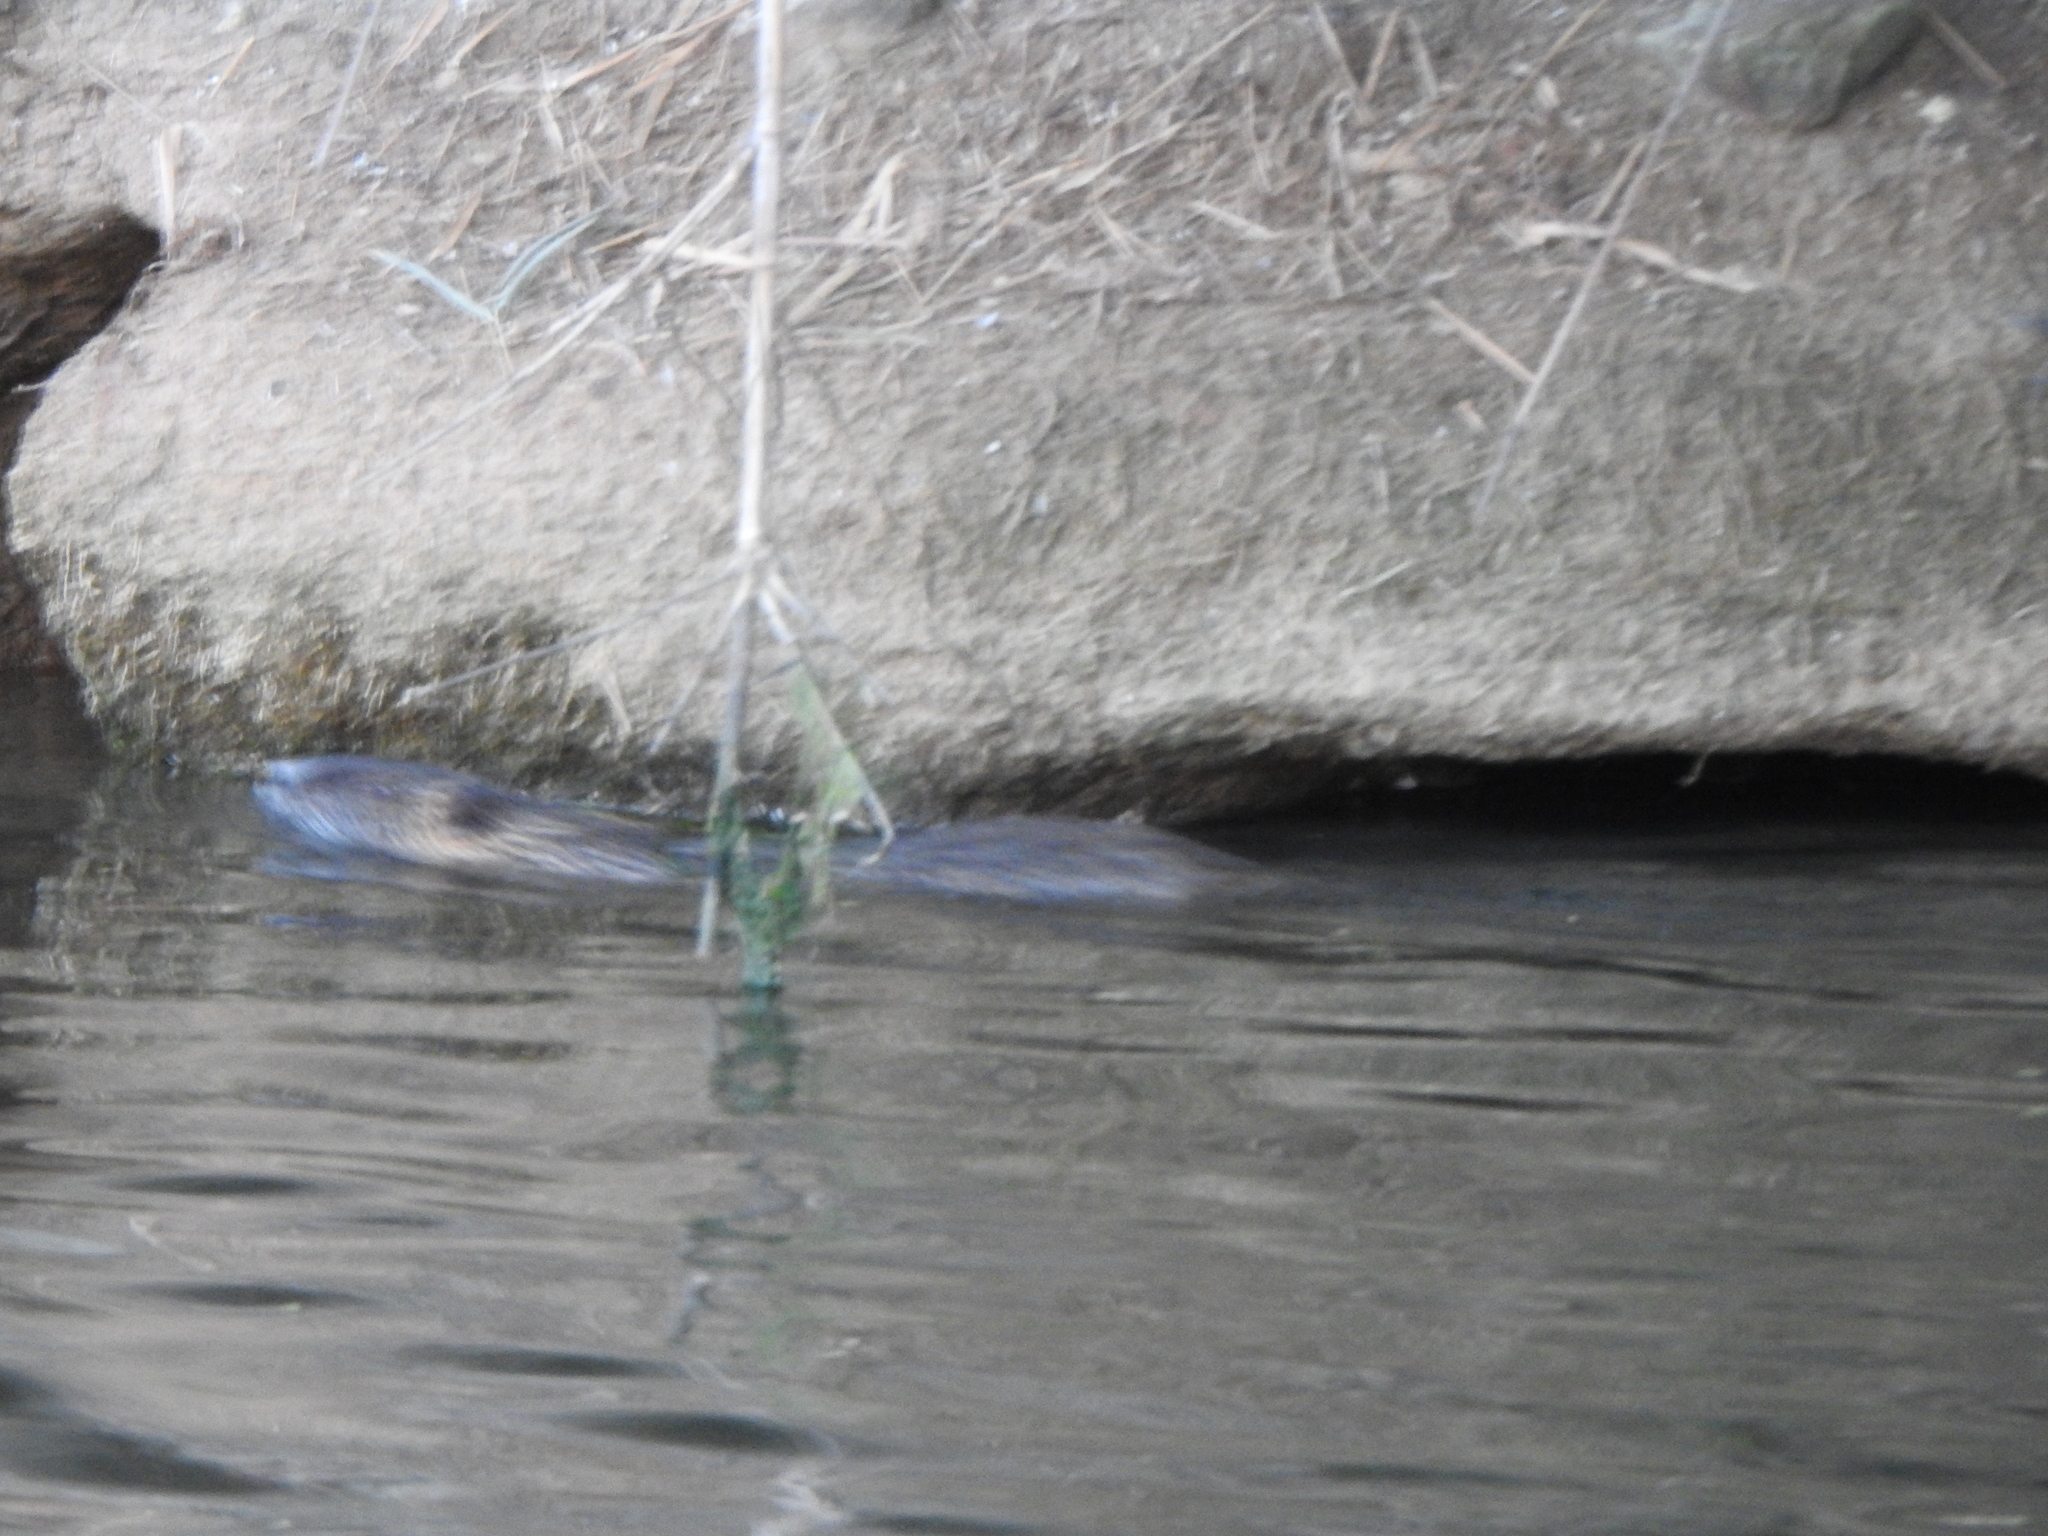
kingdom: Animalia
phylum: Chordata
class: Mammalia
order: Rodentia
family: Myocastoridae
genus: Myocastor
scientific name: Myocastor coypus
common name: Coypu
